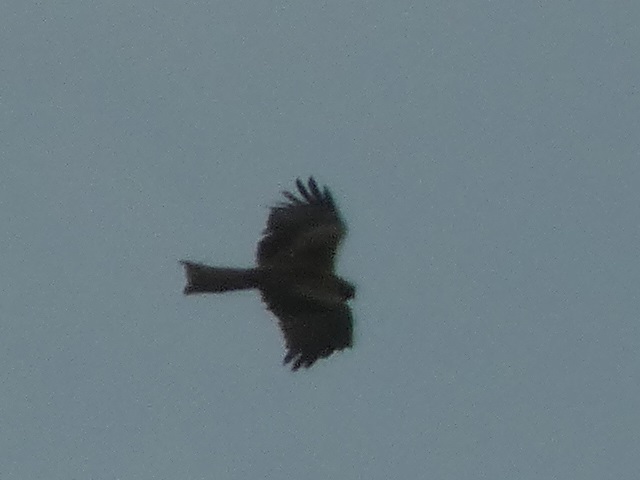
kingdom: Animalia
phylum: Chordata
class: Aves
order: Accipitriformes
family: Accipitridae
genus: Milvus
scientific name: Milvus migrans
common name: Black kite
